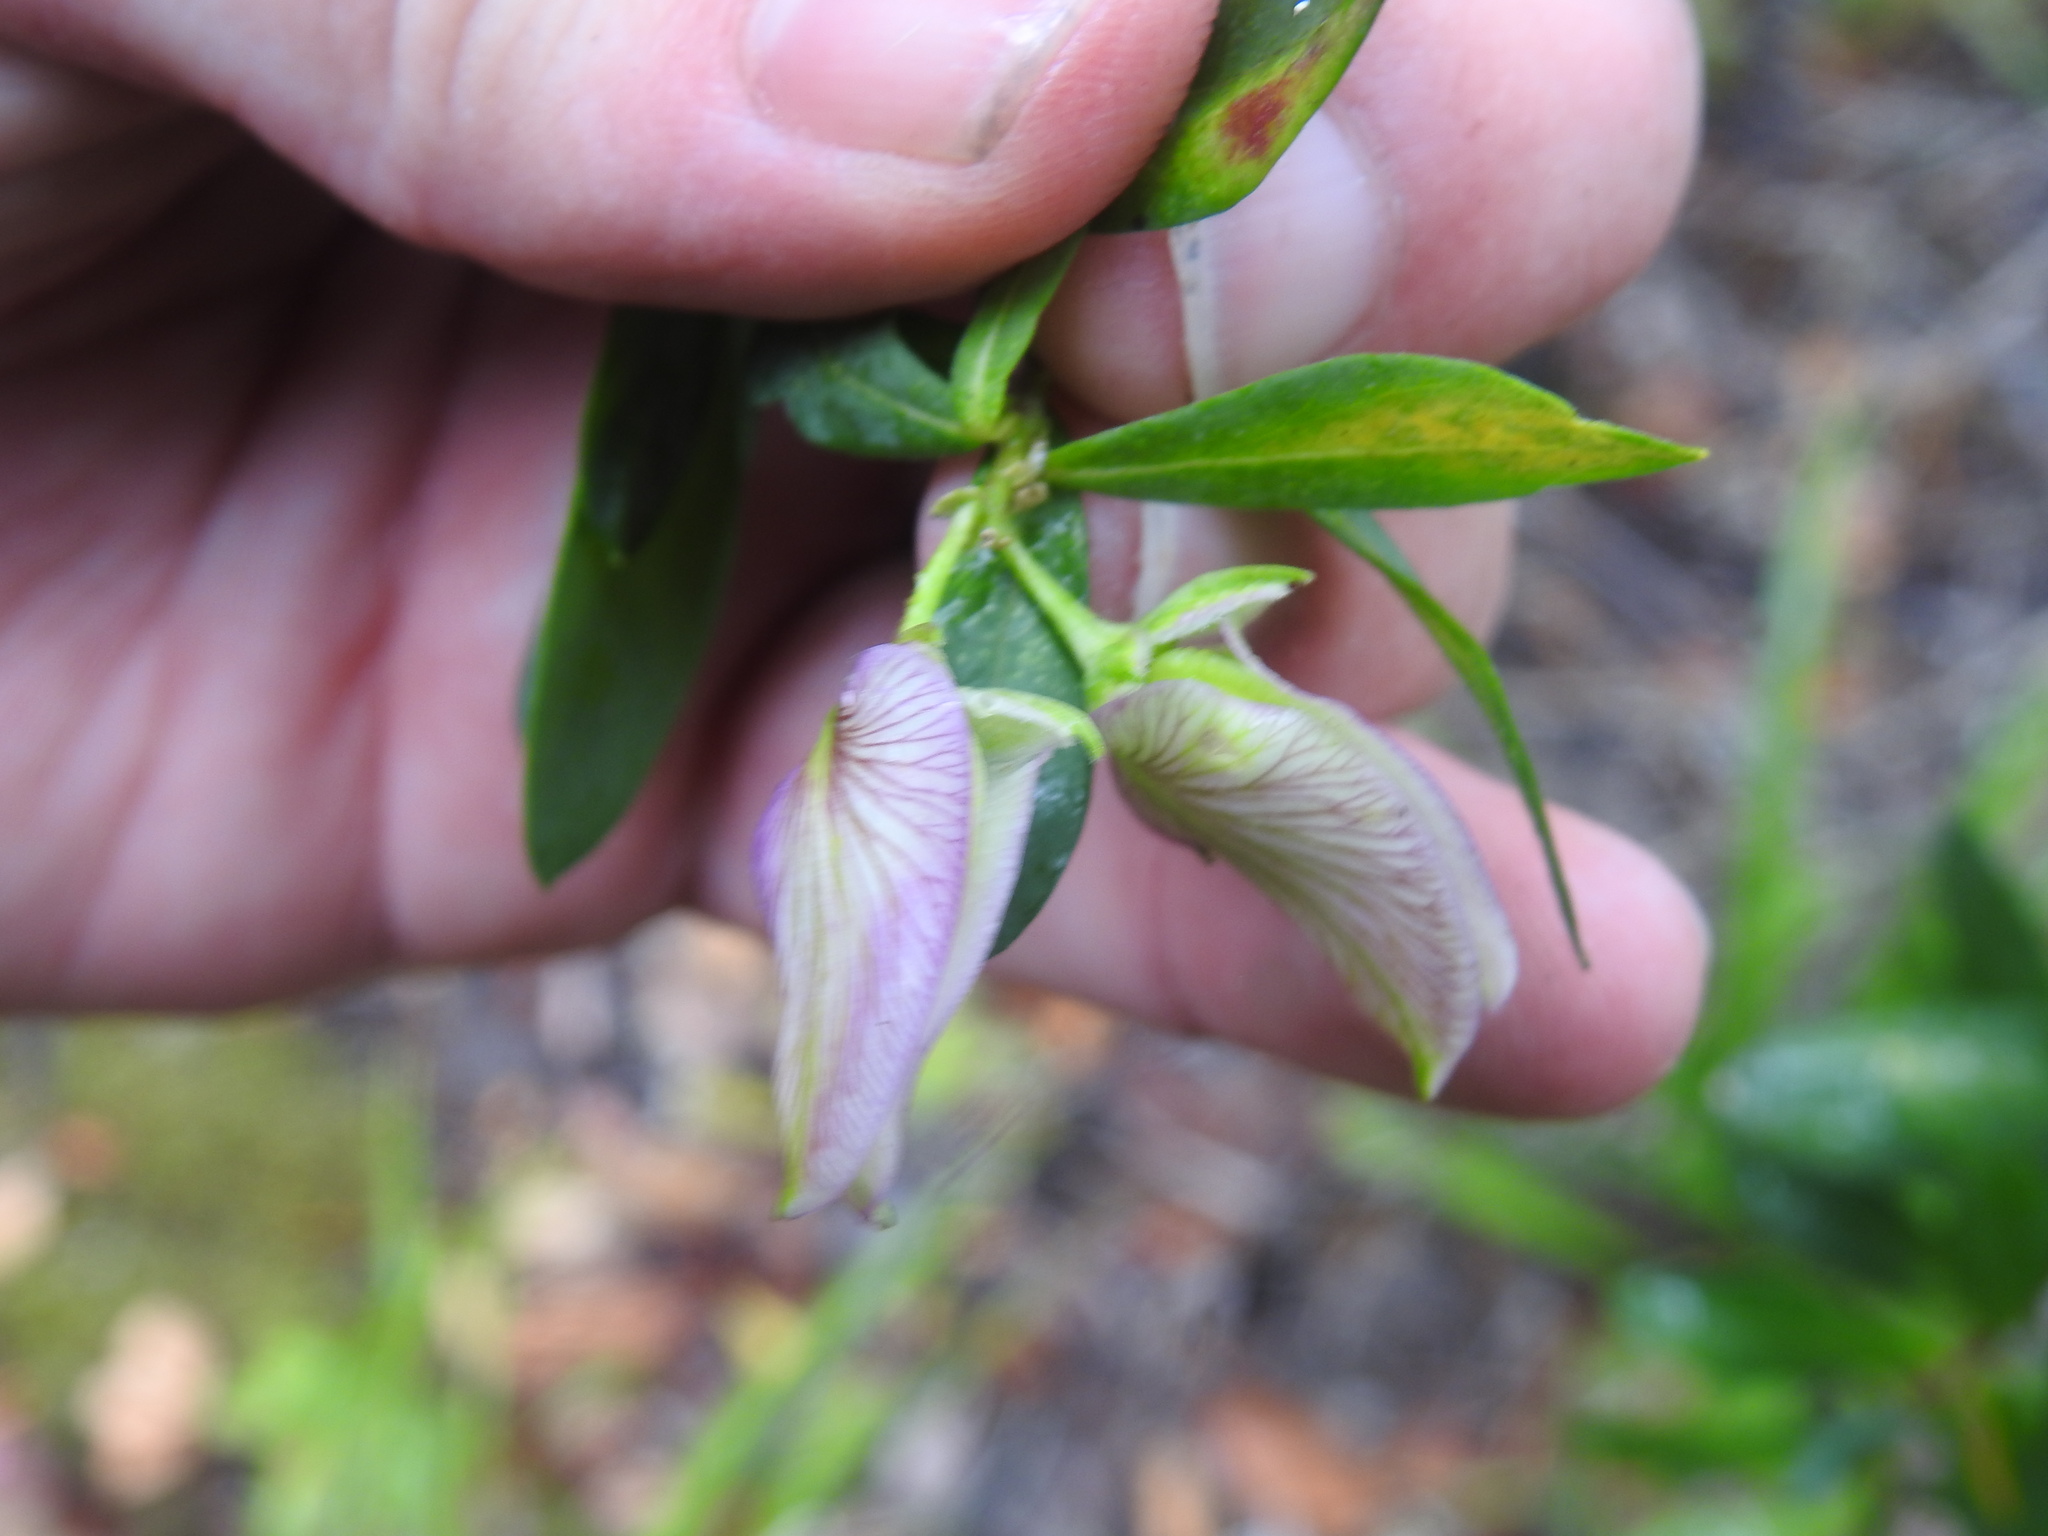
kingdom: Plantae
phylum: Tracheophyta
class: Magnoliopsida
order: Fabales
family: Polygalaceae
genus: Polygala
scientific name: Polygala myrtifolia
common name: Myrtle-leaf milkwort
